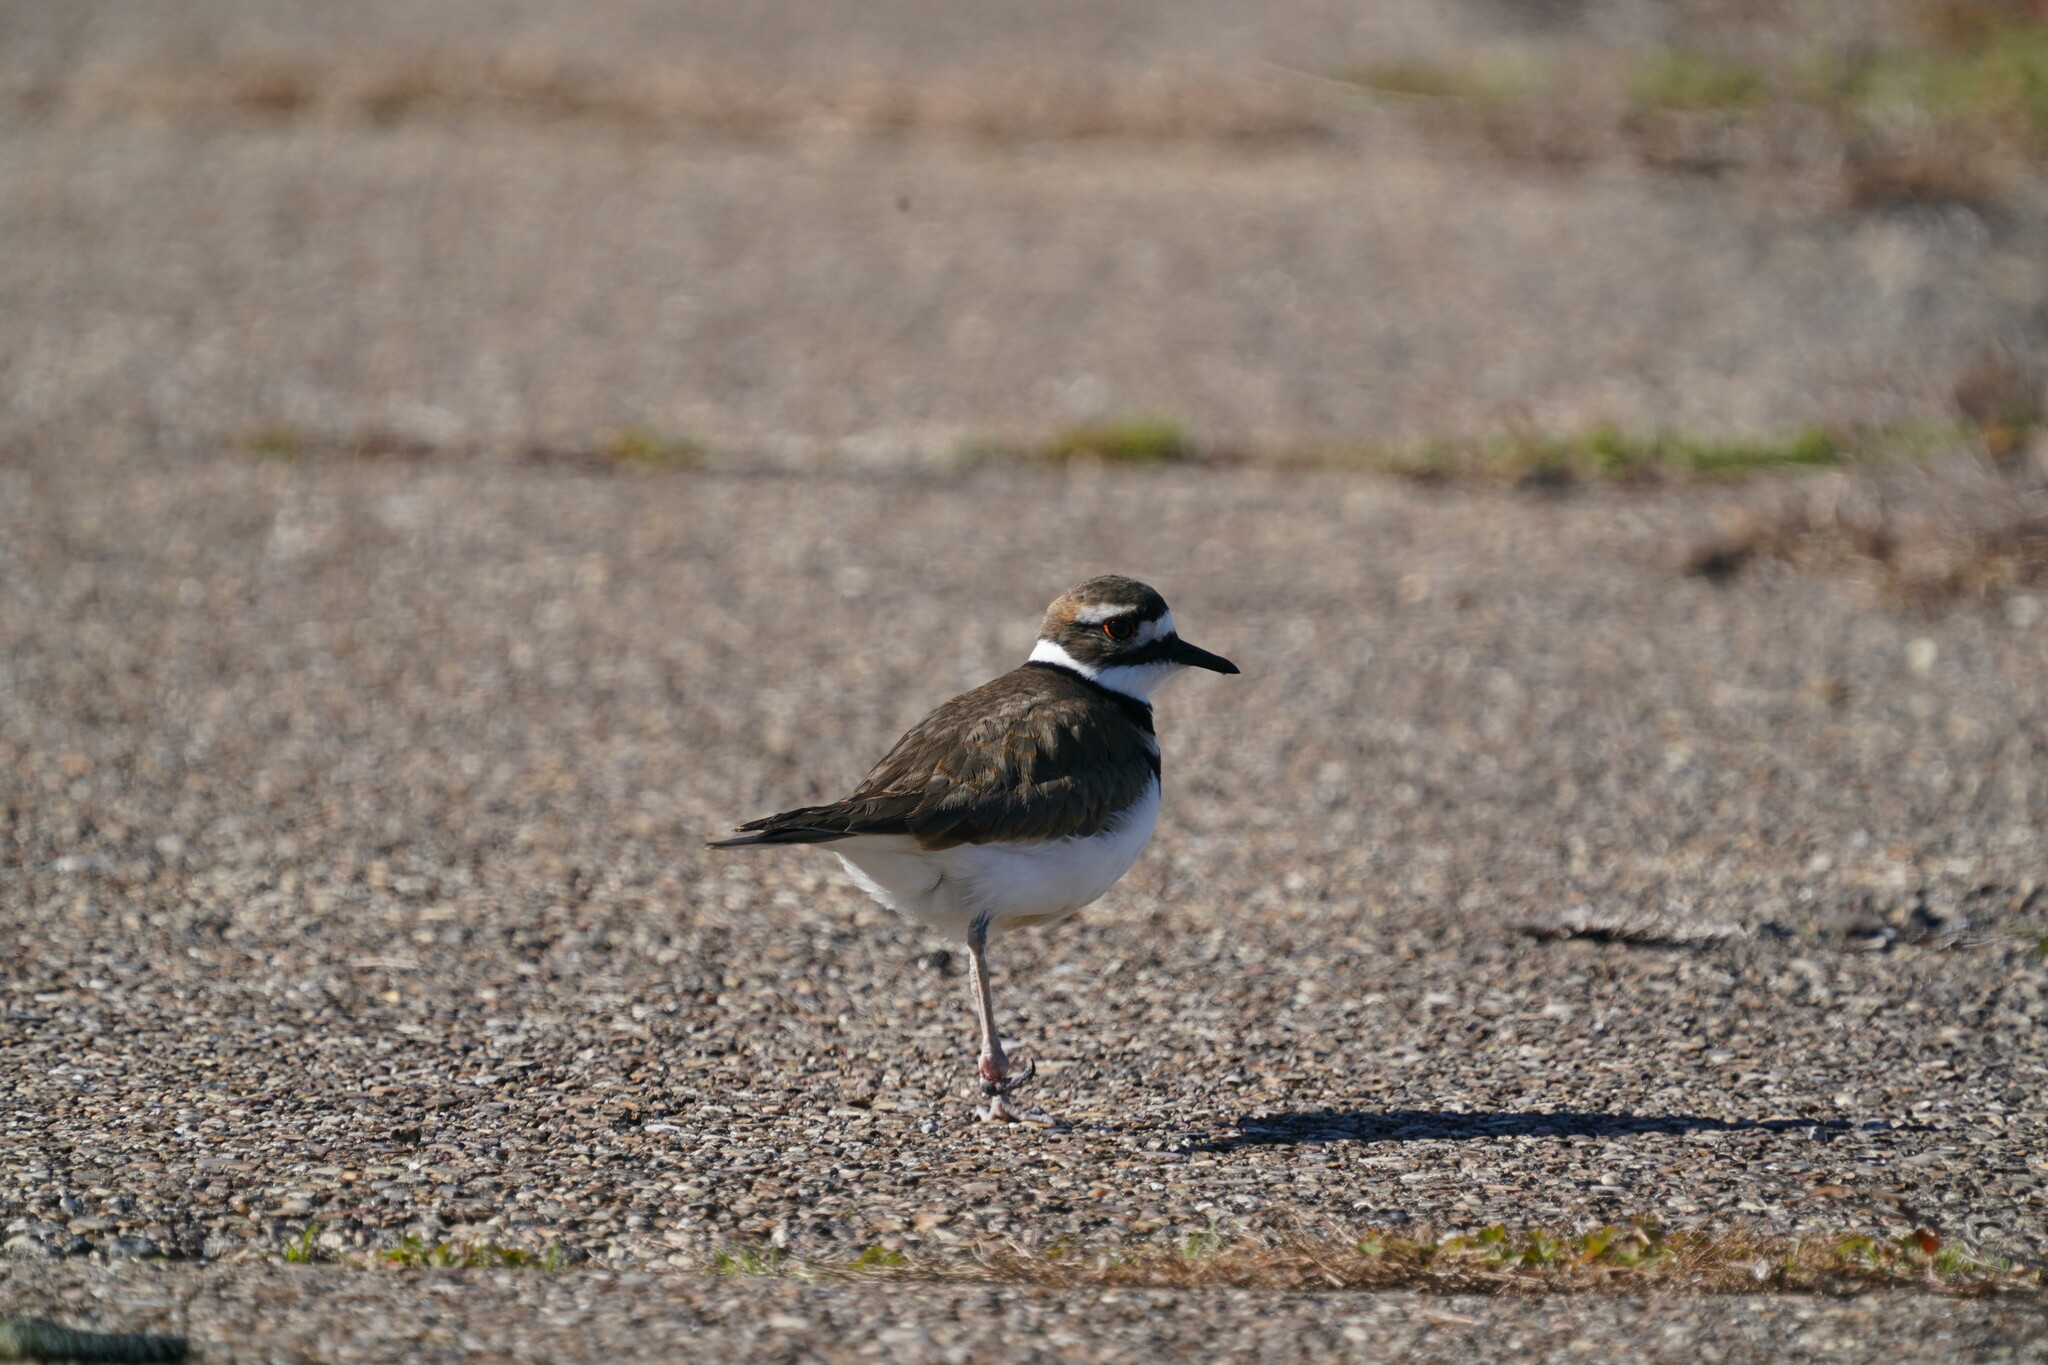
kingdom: Animalia
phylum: Chordata
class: Aves
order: Charadriiformes
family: Charadriidae
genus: Charadrius
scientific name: Charadrius vociferus
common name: Killdeer
